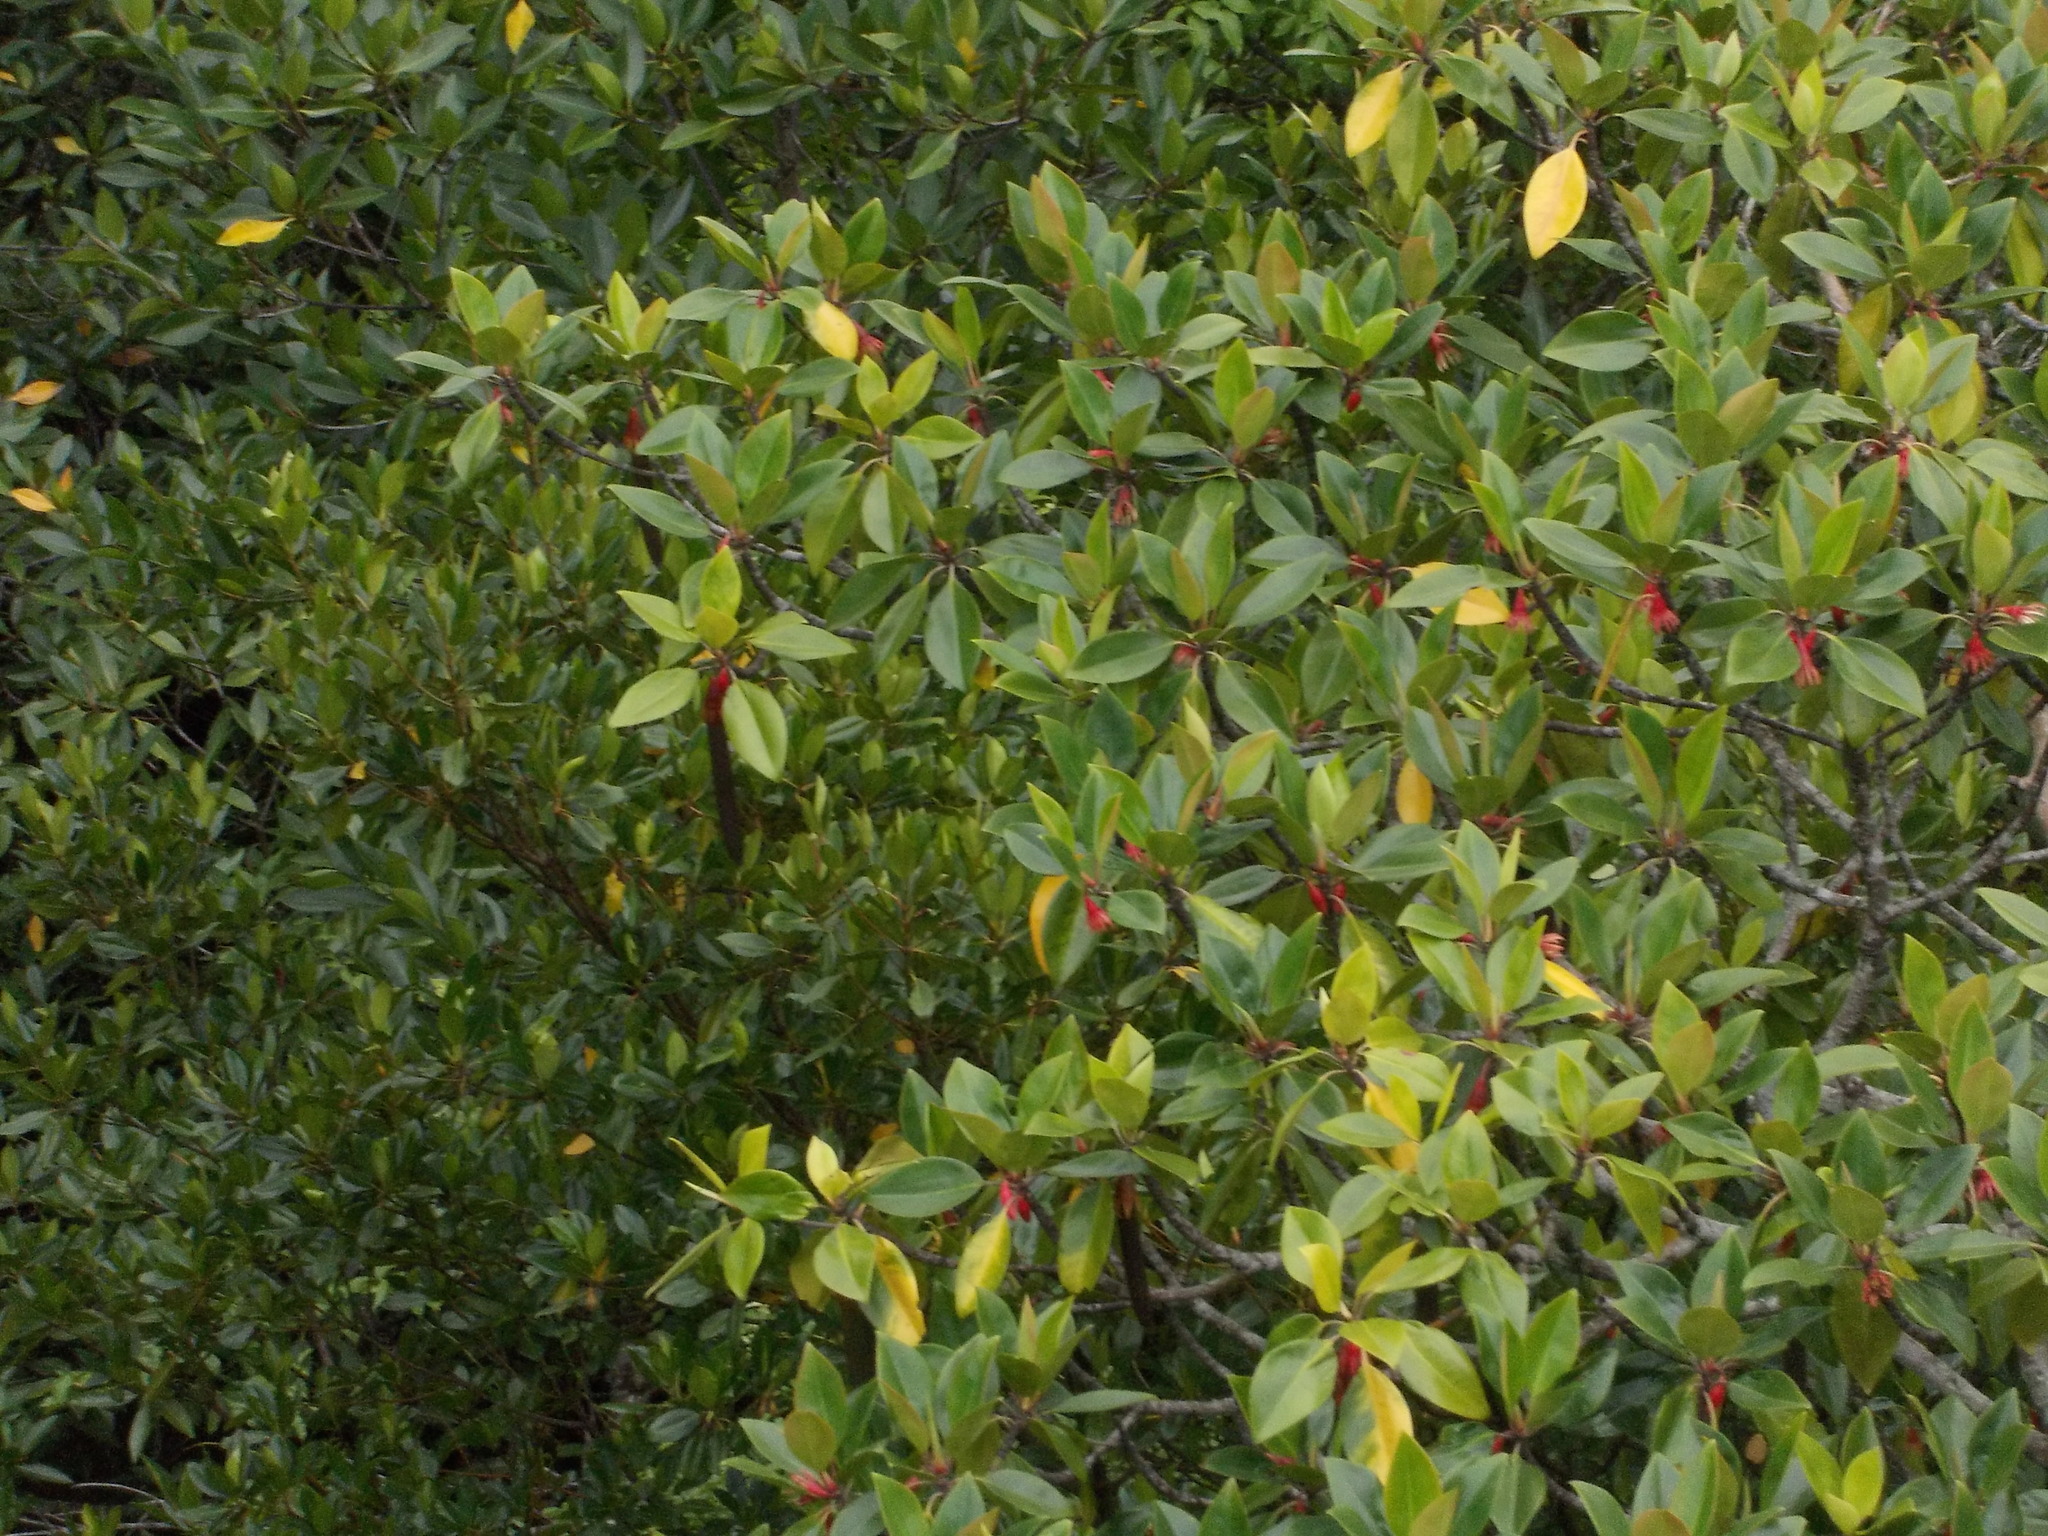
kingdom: Plantae
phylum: Tracheophyta
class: Magnoliopsida
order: Malpighiales
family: Rhizophoraceae
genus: Bruguiera
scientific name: Bruguiera gymnorhiza
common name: Oriental mangrove
